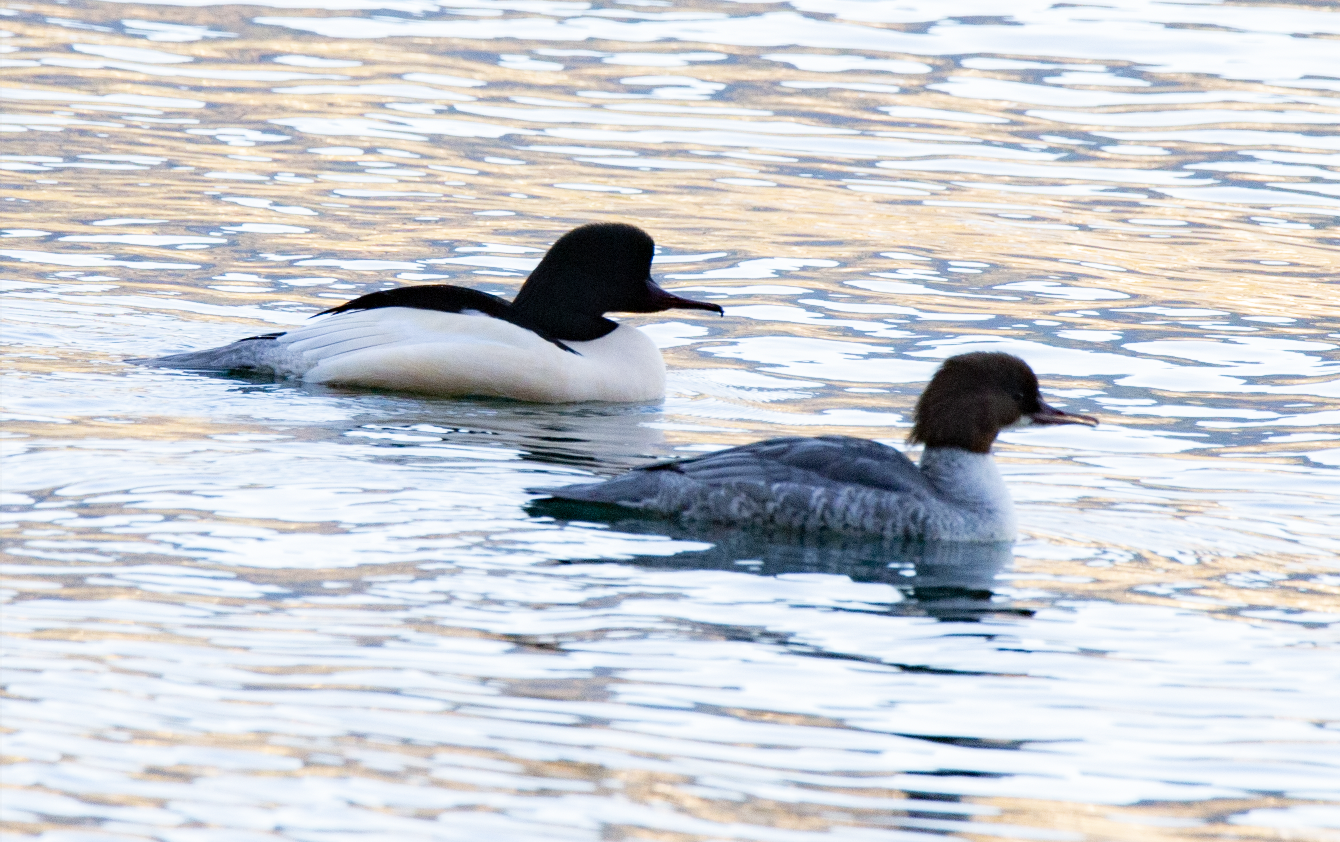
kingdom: Animalia
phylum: Chordata
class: Aves
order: Anseriformes
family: Anatidae
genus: Mergus
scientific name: Mergus merganser
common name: Common merganser
